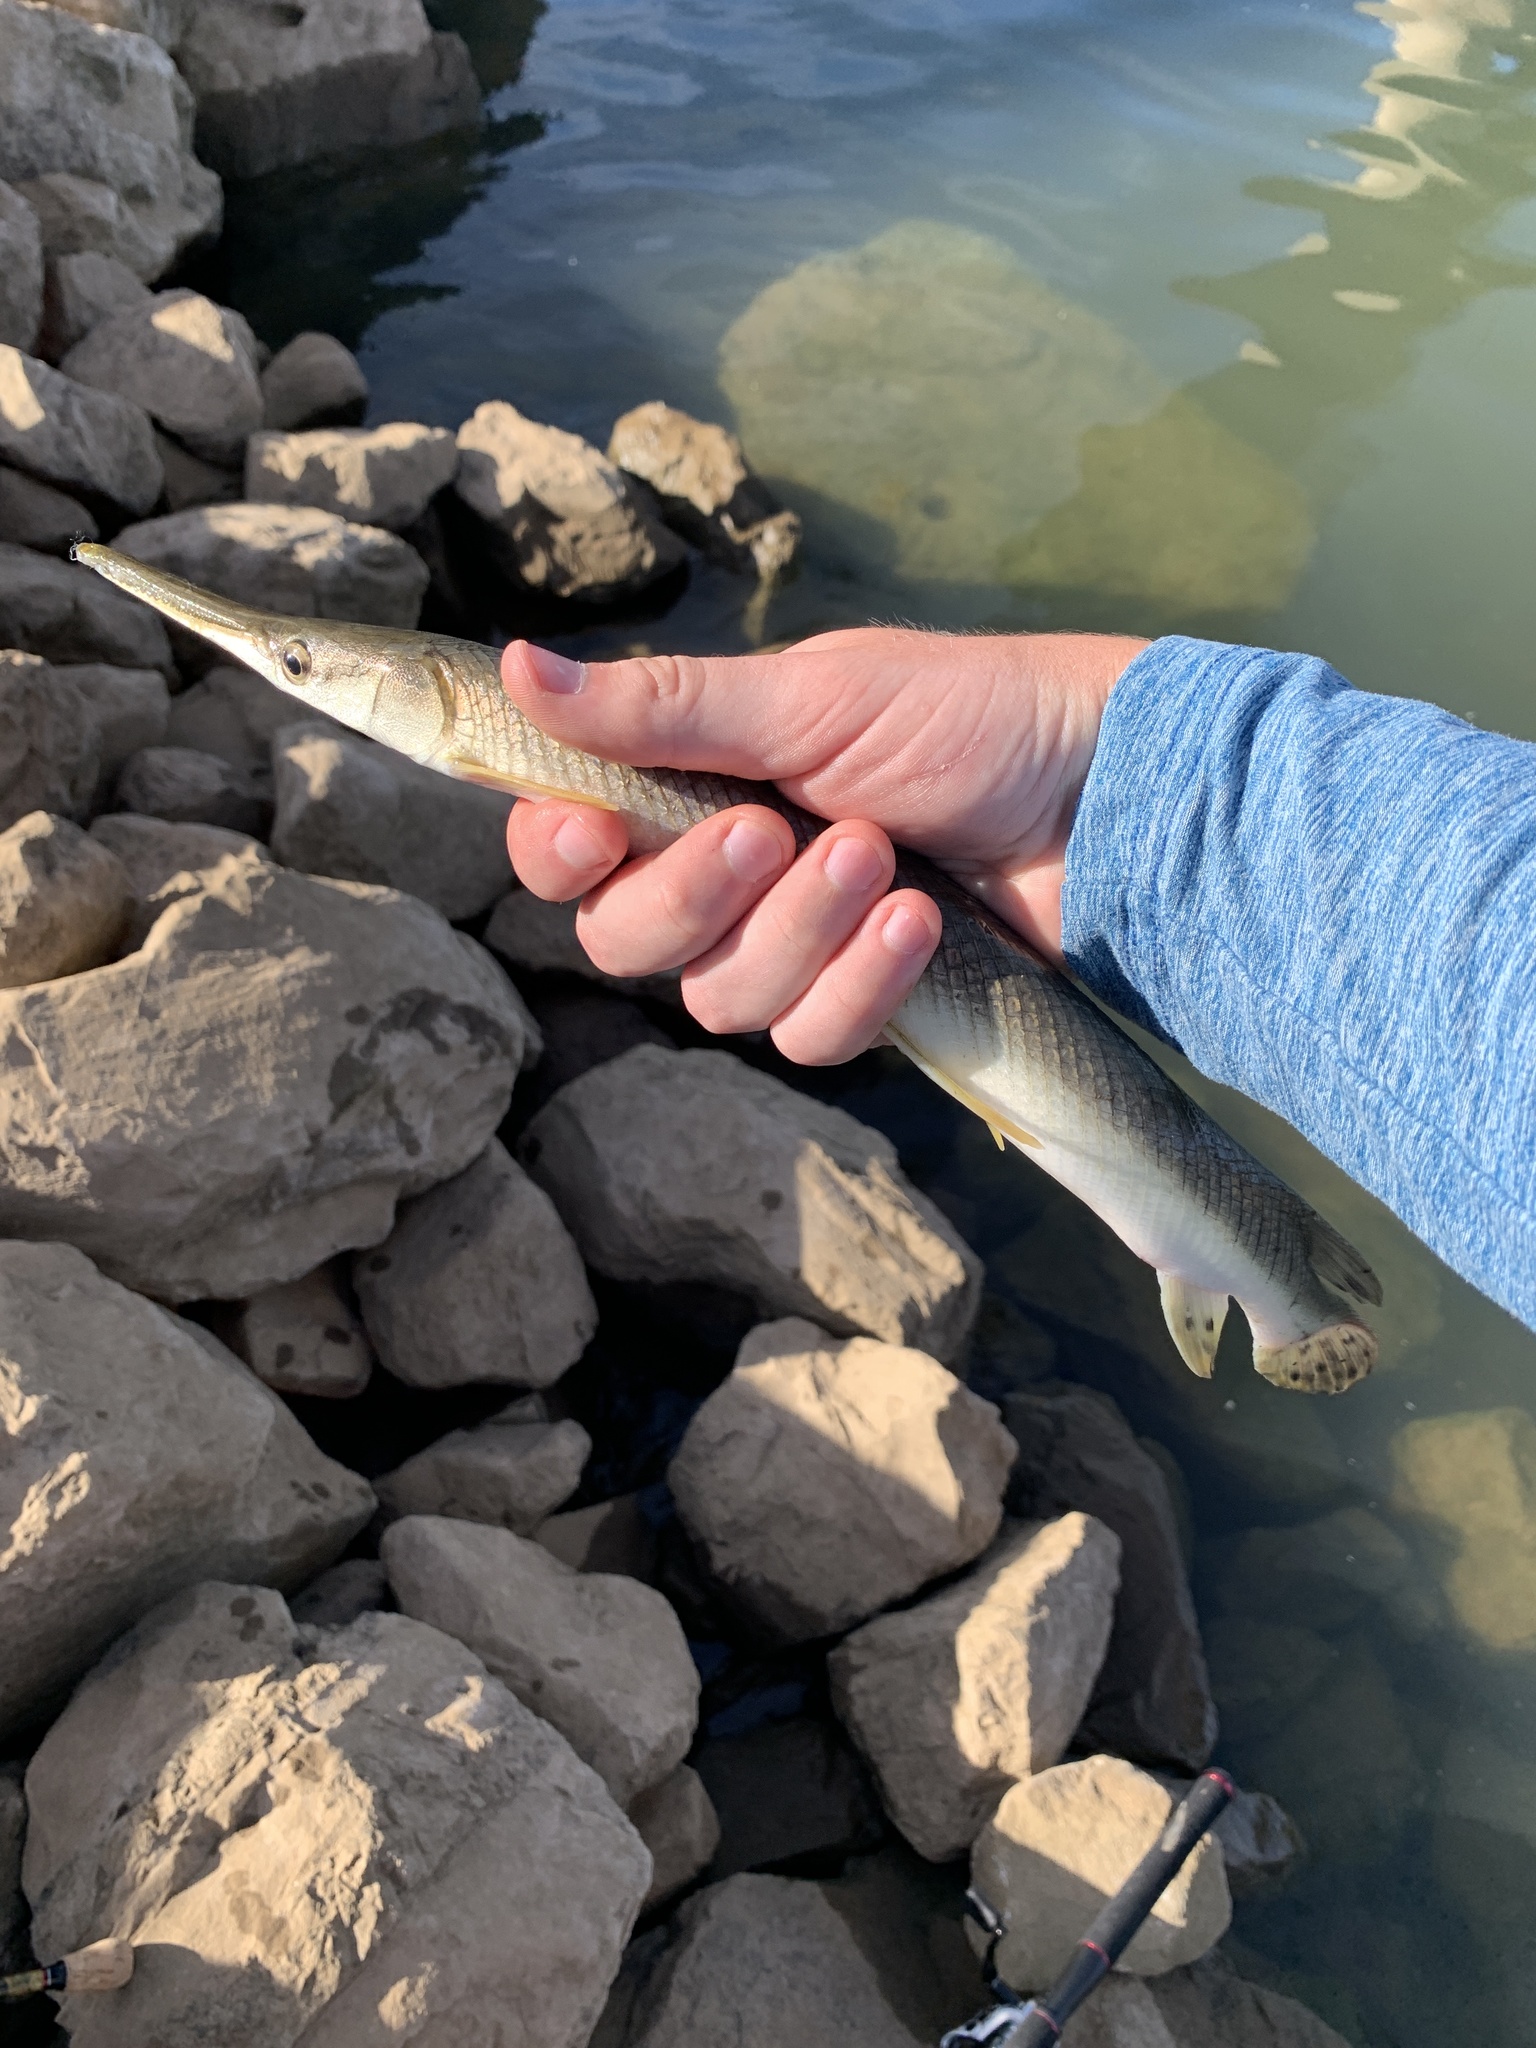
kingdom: Animalia
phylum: Chordata
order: Lepisosteiformes
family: Lepisosteidae
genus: Lepisosteus
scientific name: Lepisosteus platostomus
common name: Shortnose gar
